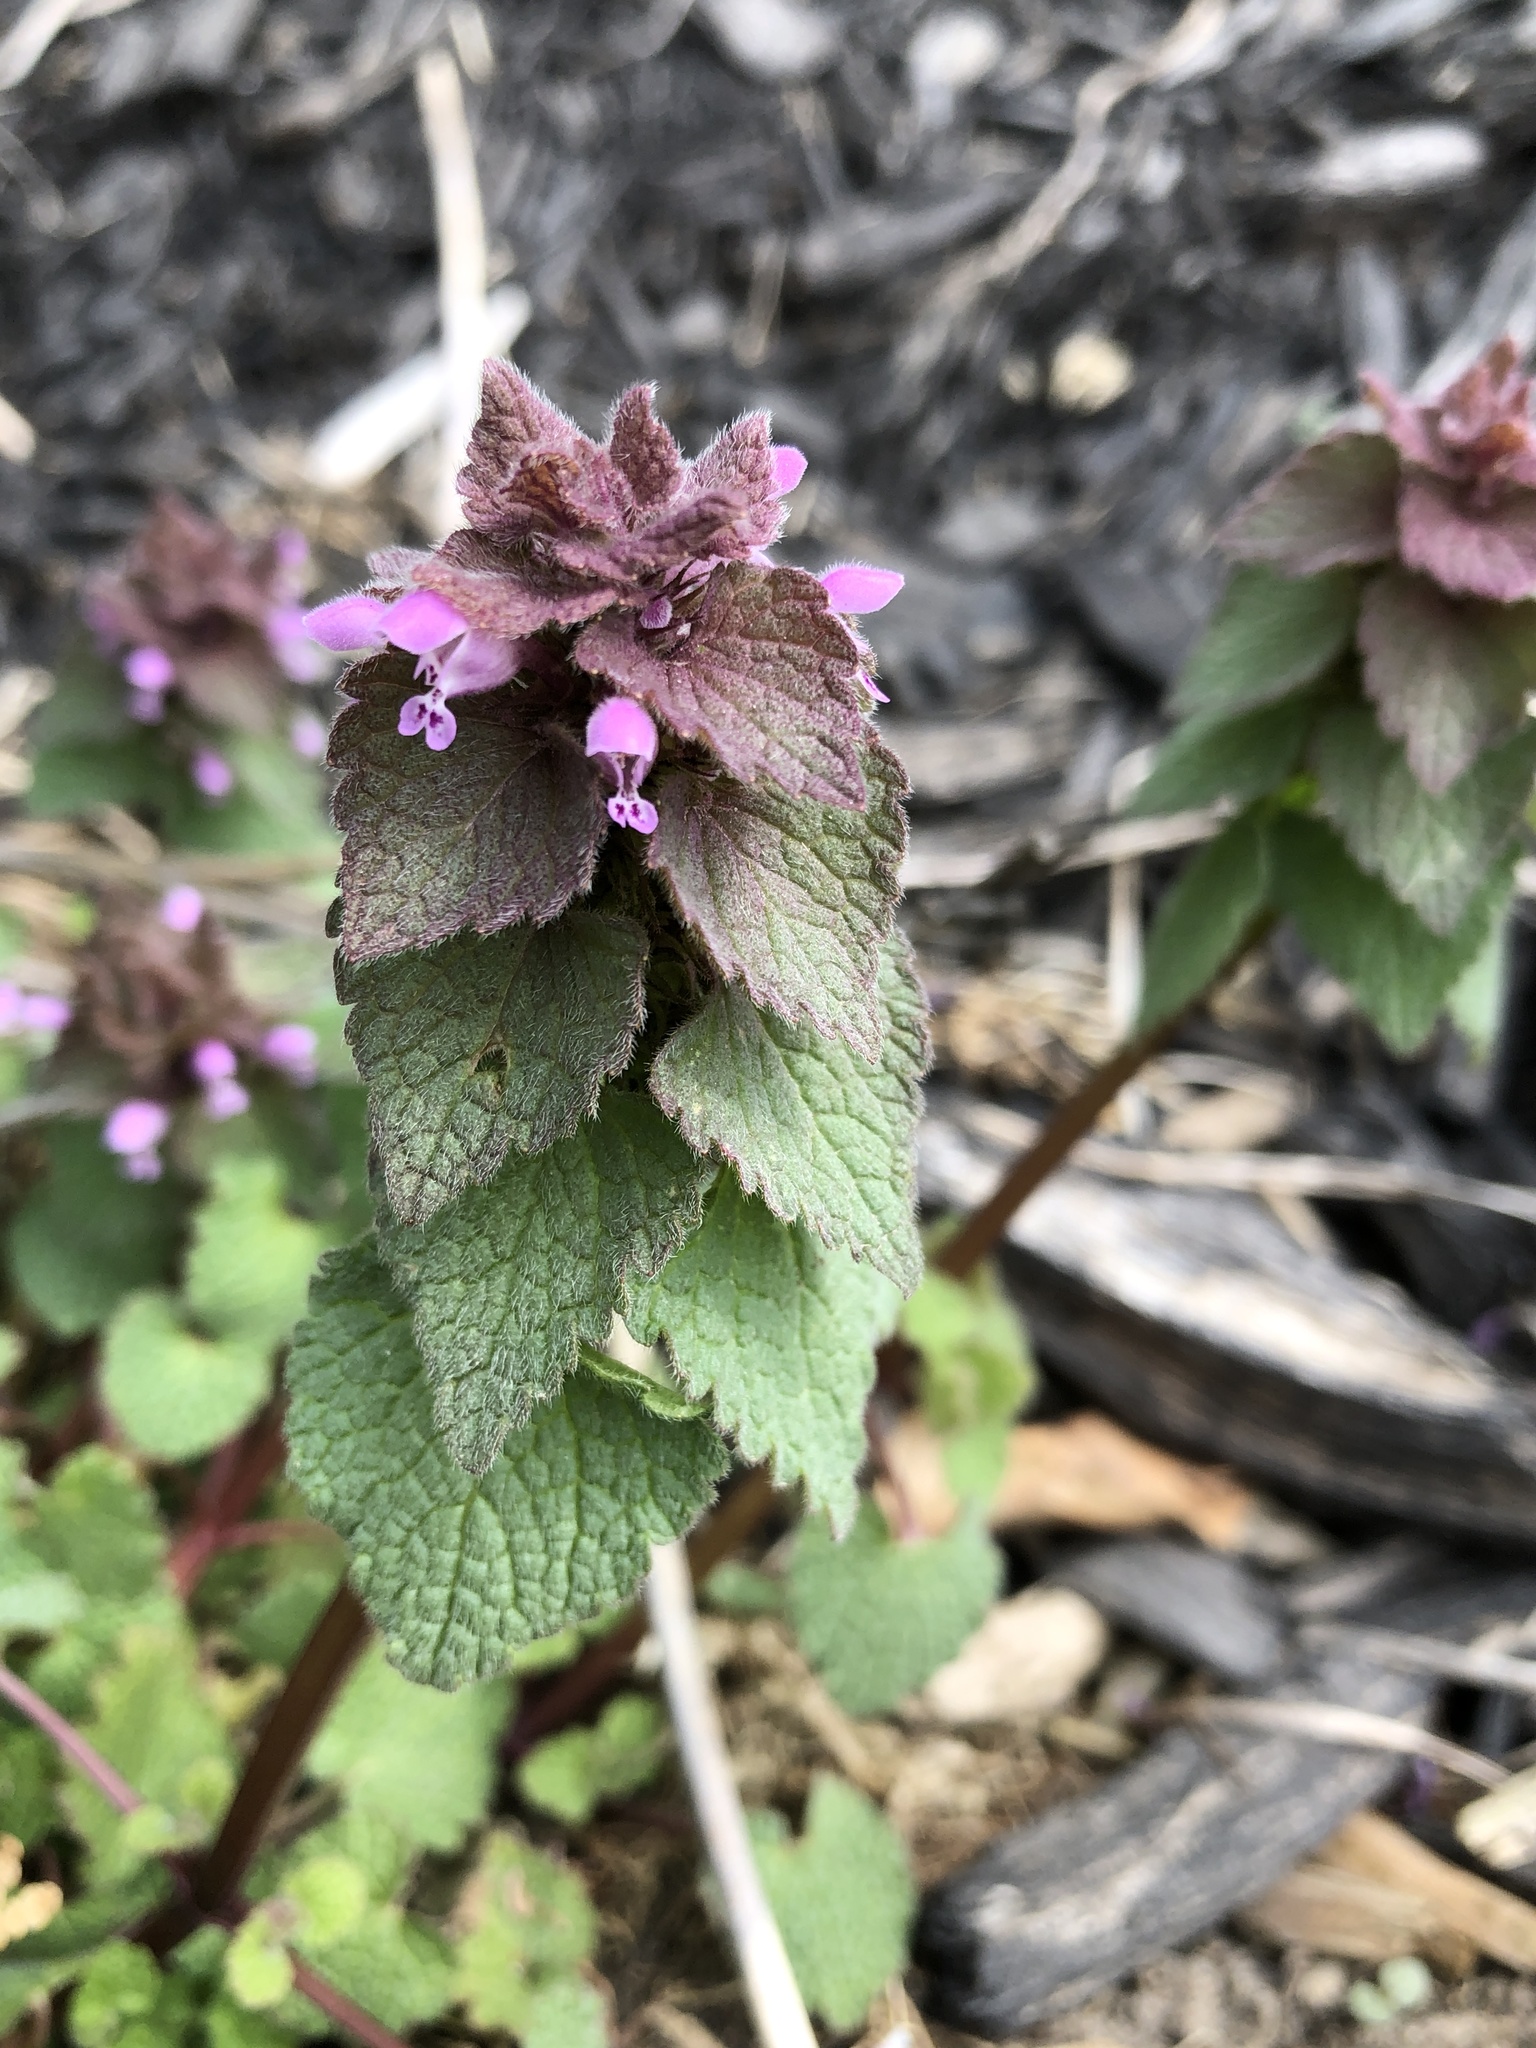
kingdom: Plantae
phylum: Tracheophyta
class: Magnoliopsida
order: Lamiales
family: Lamiaceae
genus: Lamium
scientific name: Lamium purpureum
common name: Red dead-nettle
